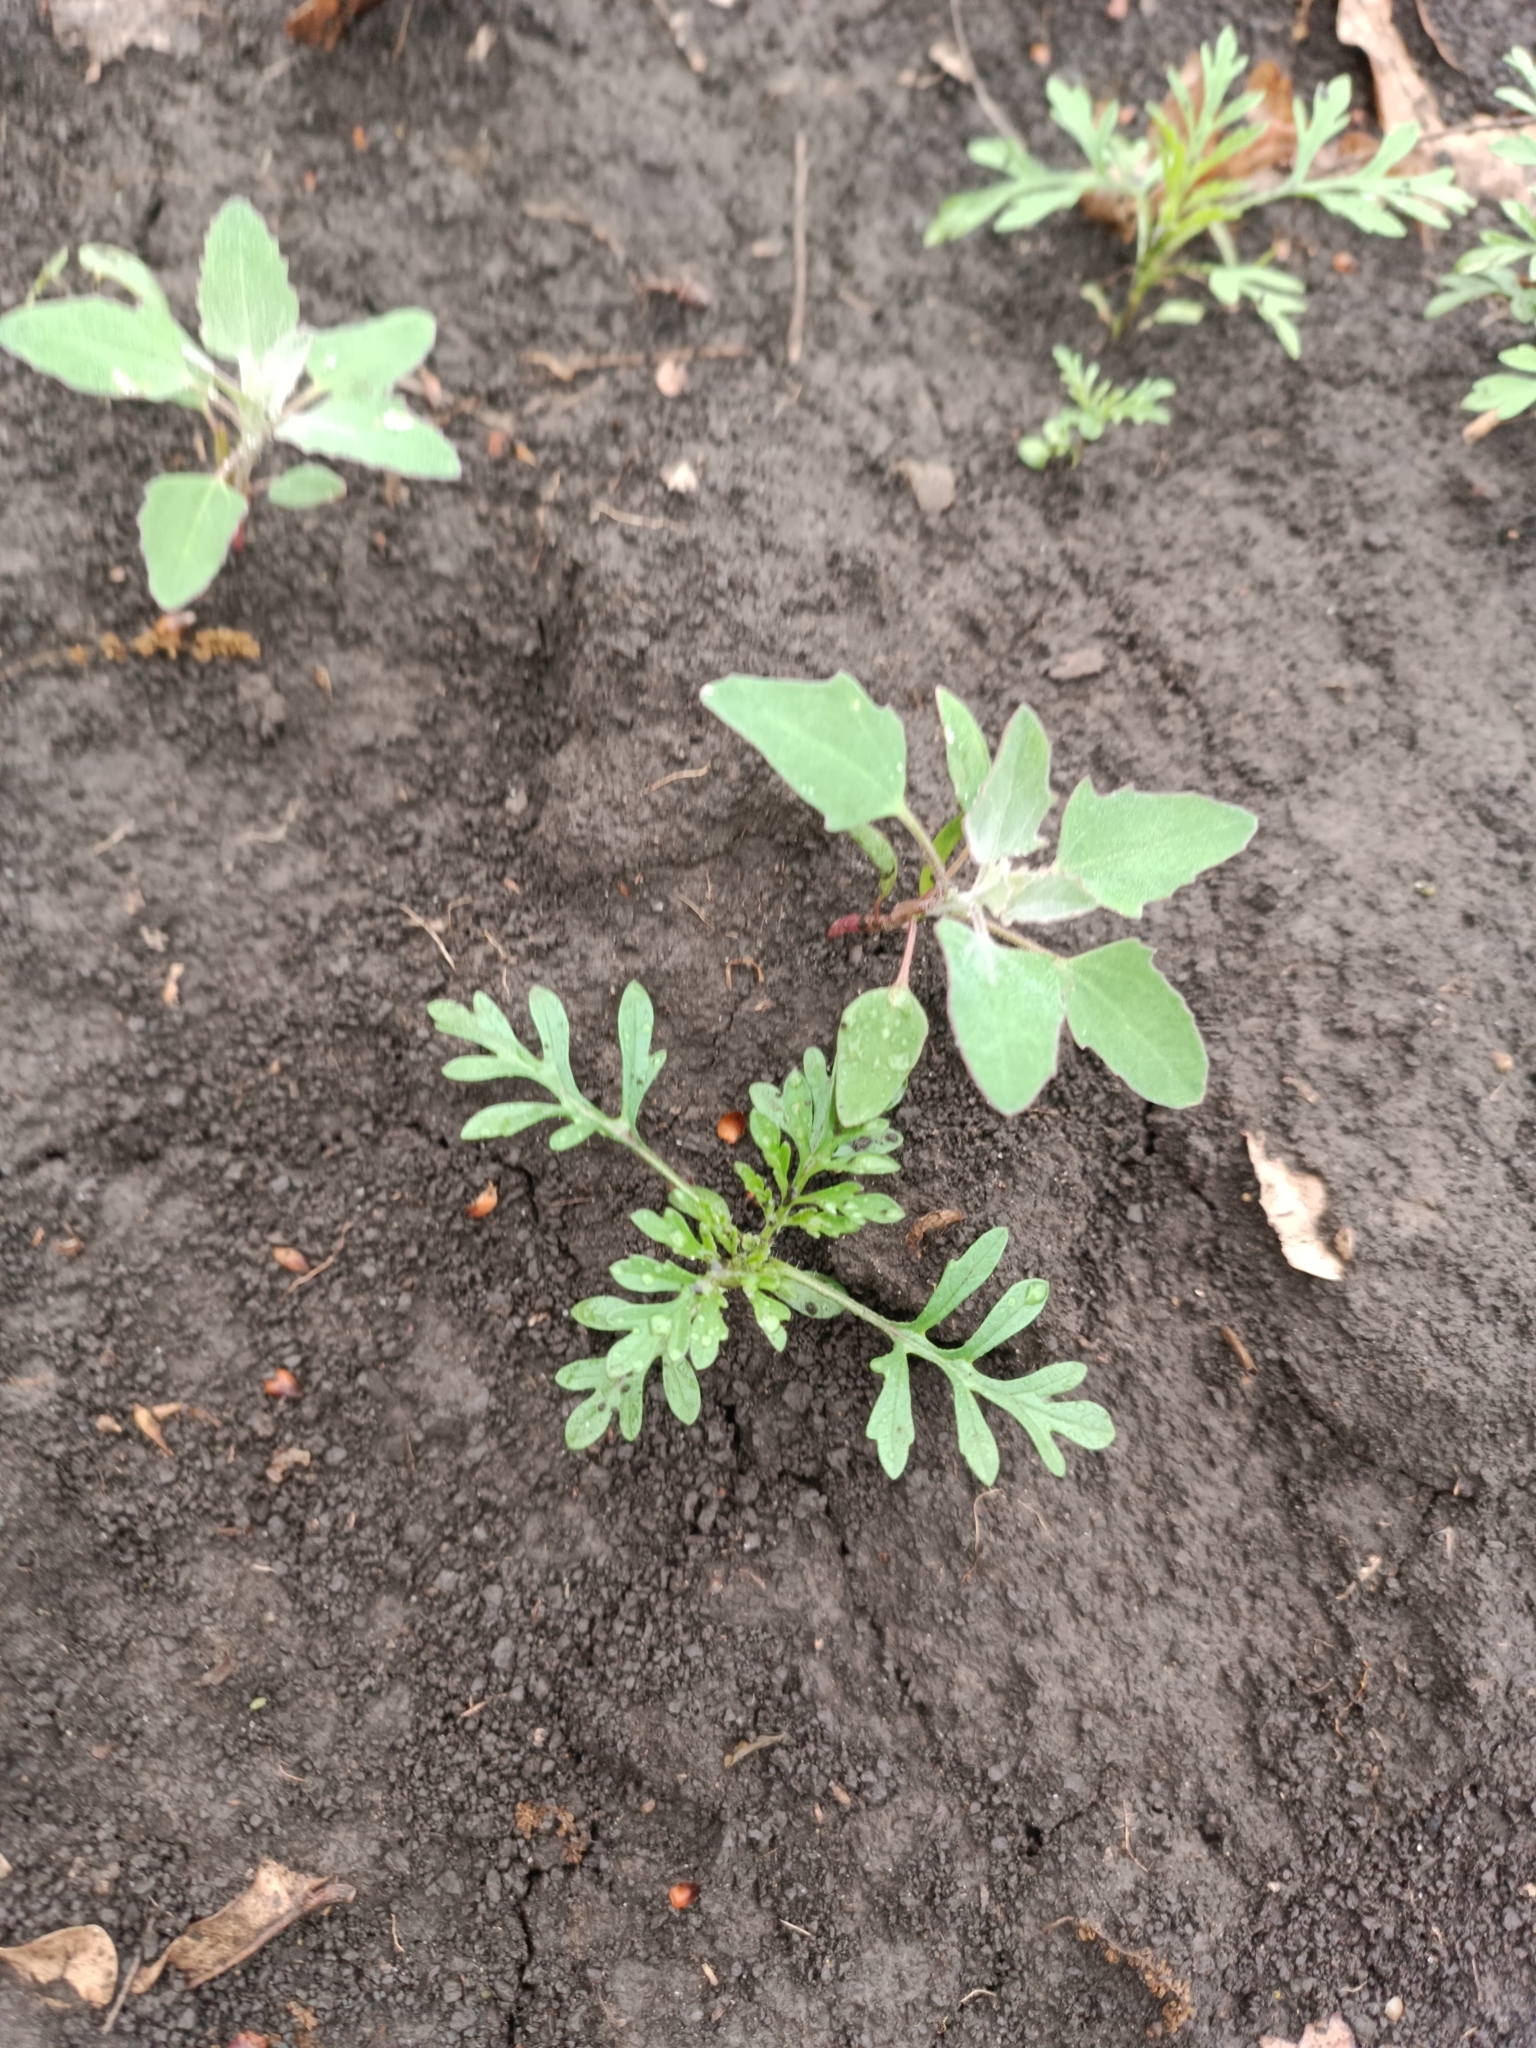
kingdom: Plantae
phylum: Tracheophyta
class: Magnoliopsida
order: Caryophyllales
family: Amaranthaceae
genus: Chenopodium
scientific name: Chenopodium album
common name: Fat-hen
